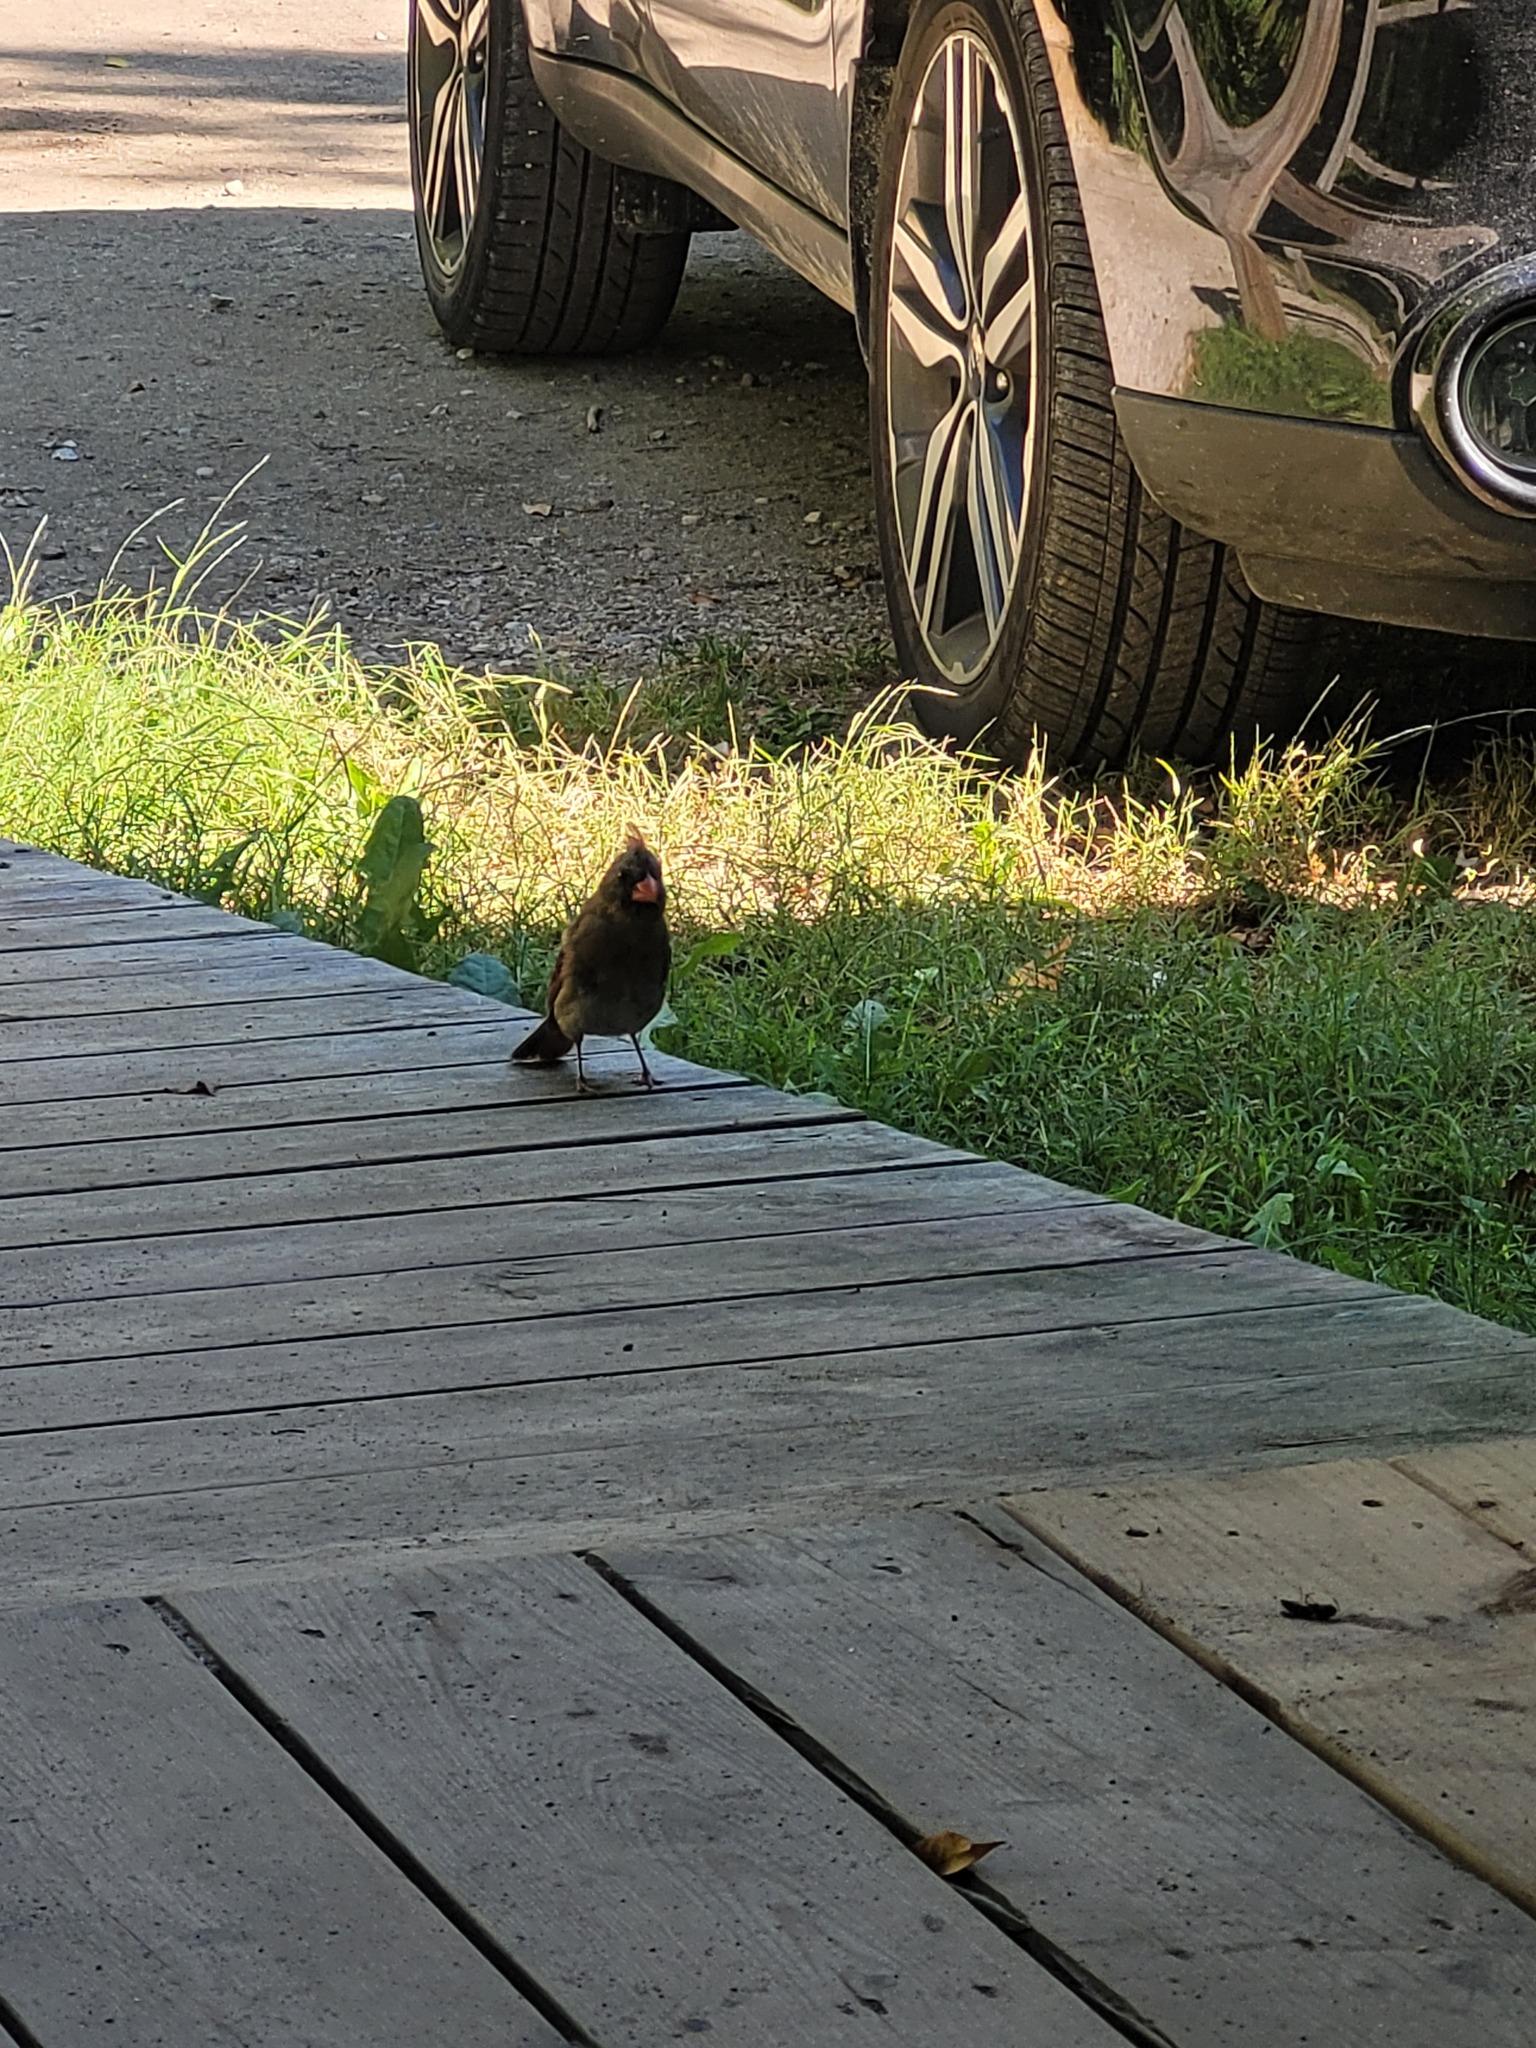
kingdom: Animalia
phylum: Chordata
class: Aves
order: Passeriformes
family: Cardinalidae
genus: Cardinalis
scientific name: Cardinalis cardinalis
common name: Northern cardinal
